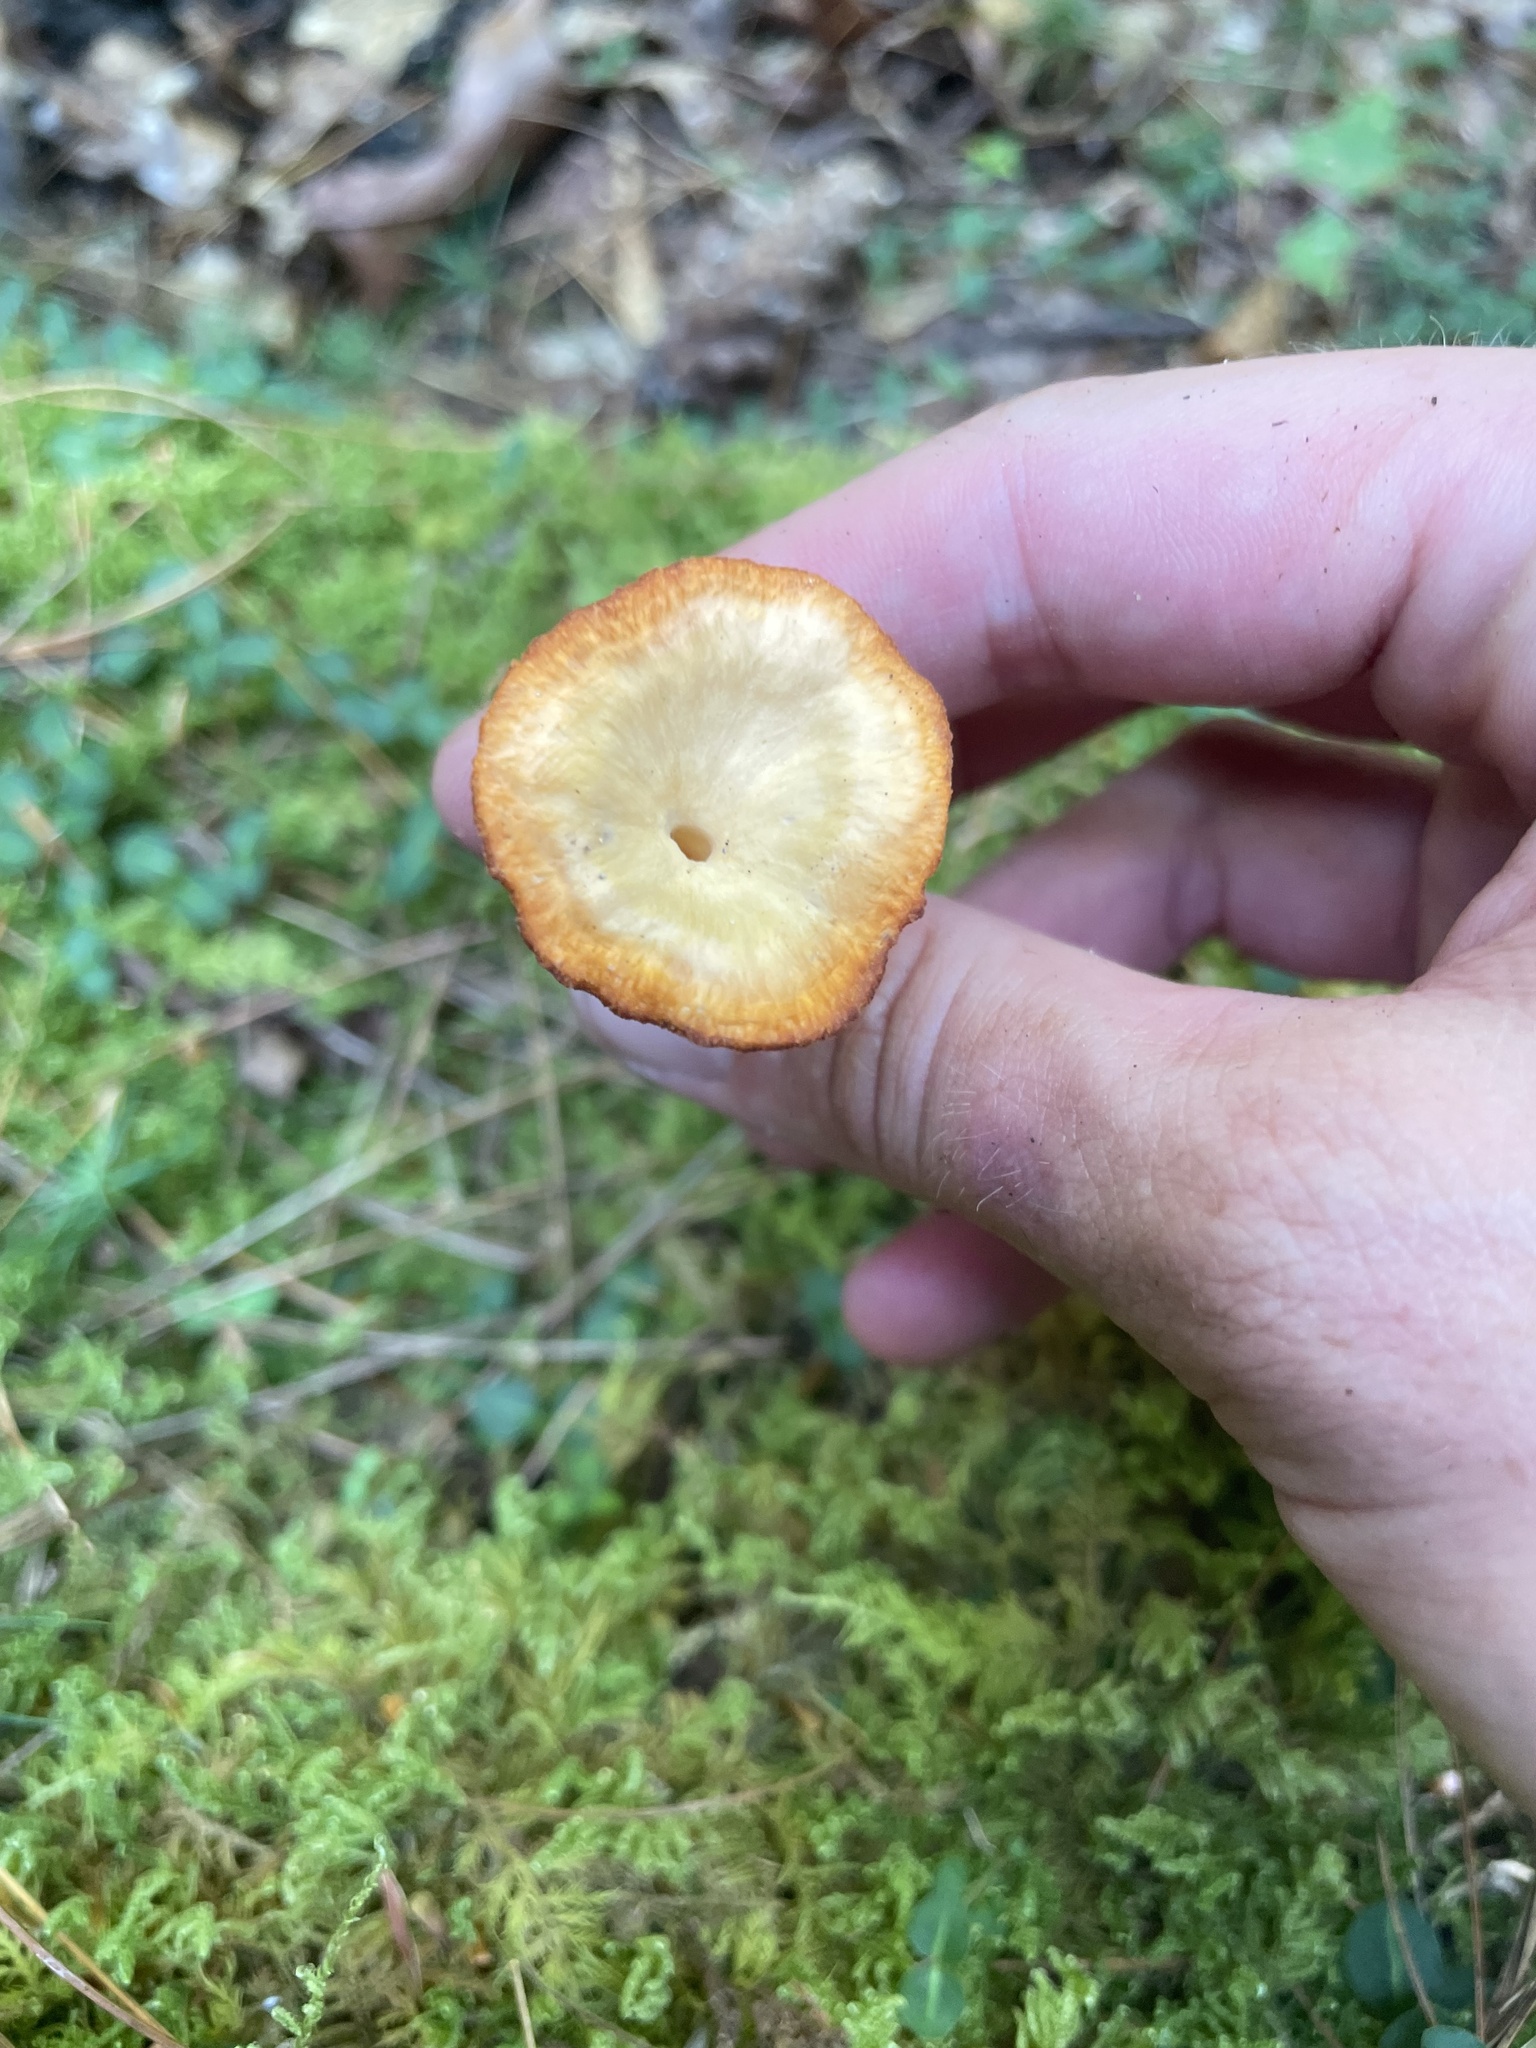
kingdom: Fungi
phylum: Basidiomycota
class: Agaricomycetes
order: Cantharellales
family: Hydnaceae
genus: Craterellus
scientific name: Craterellus ignicolor
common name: Flame chanterelle
